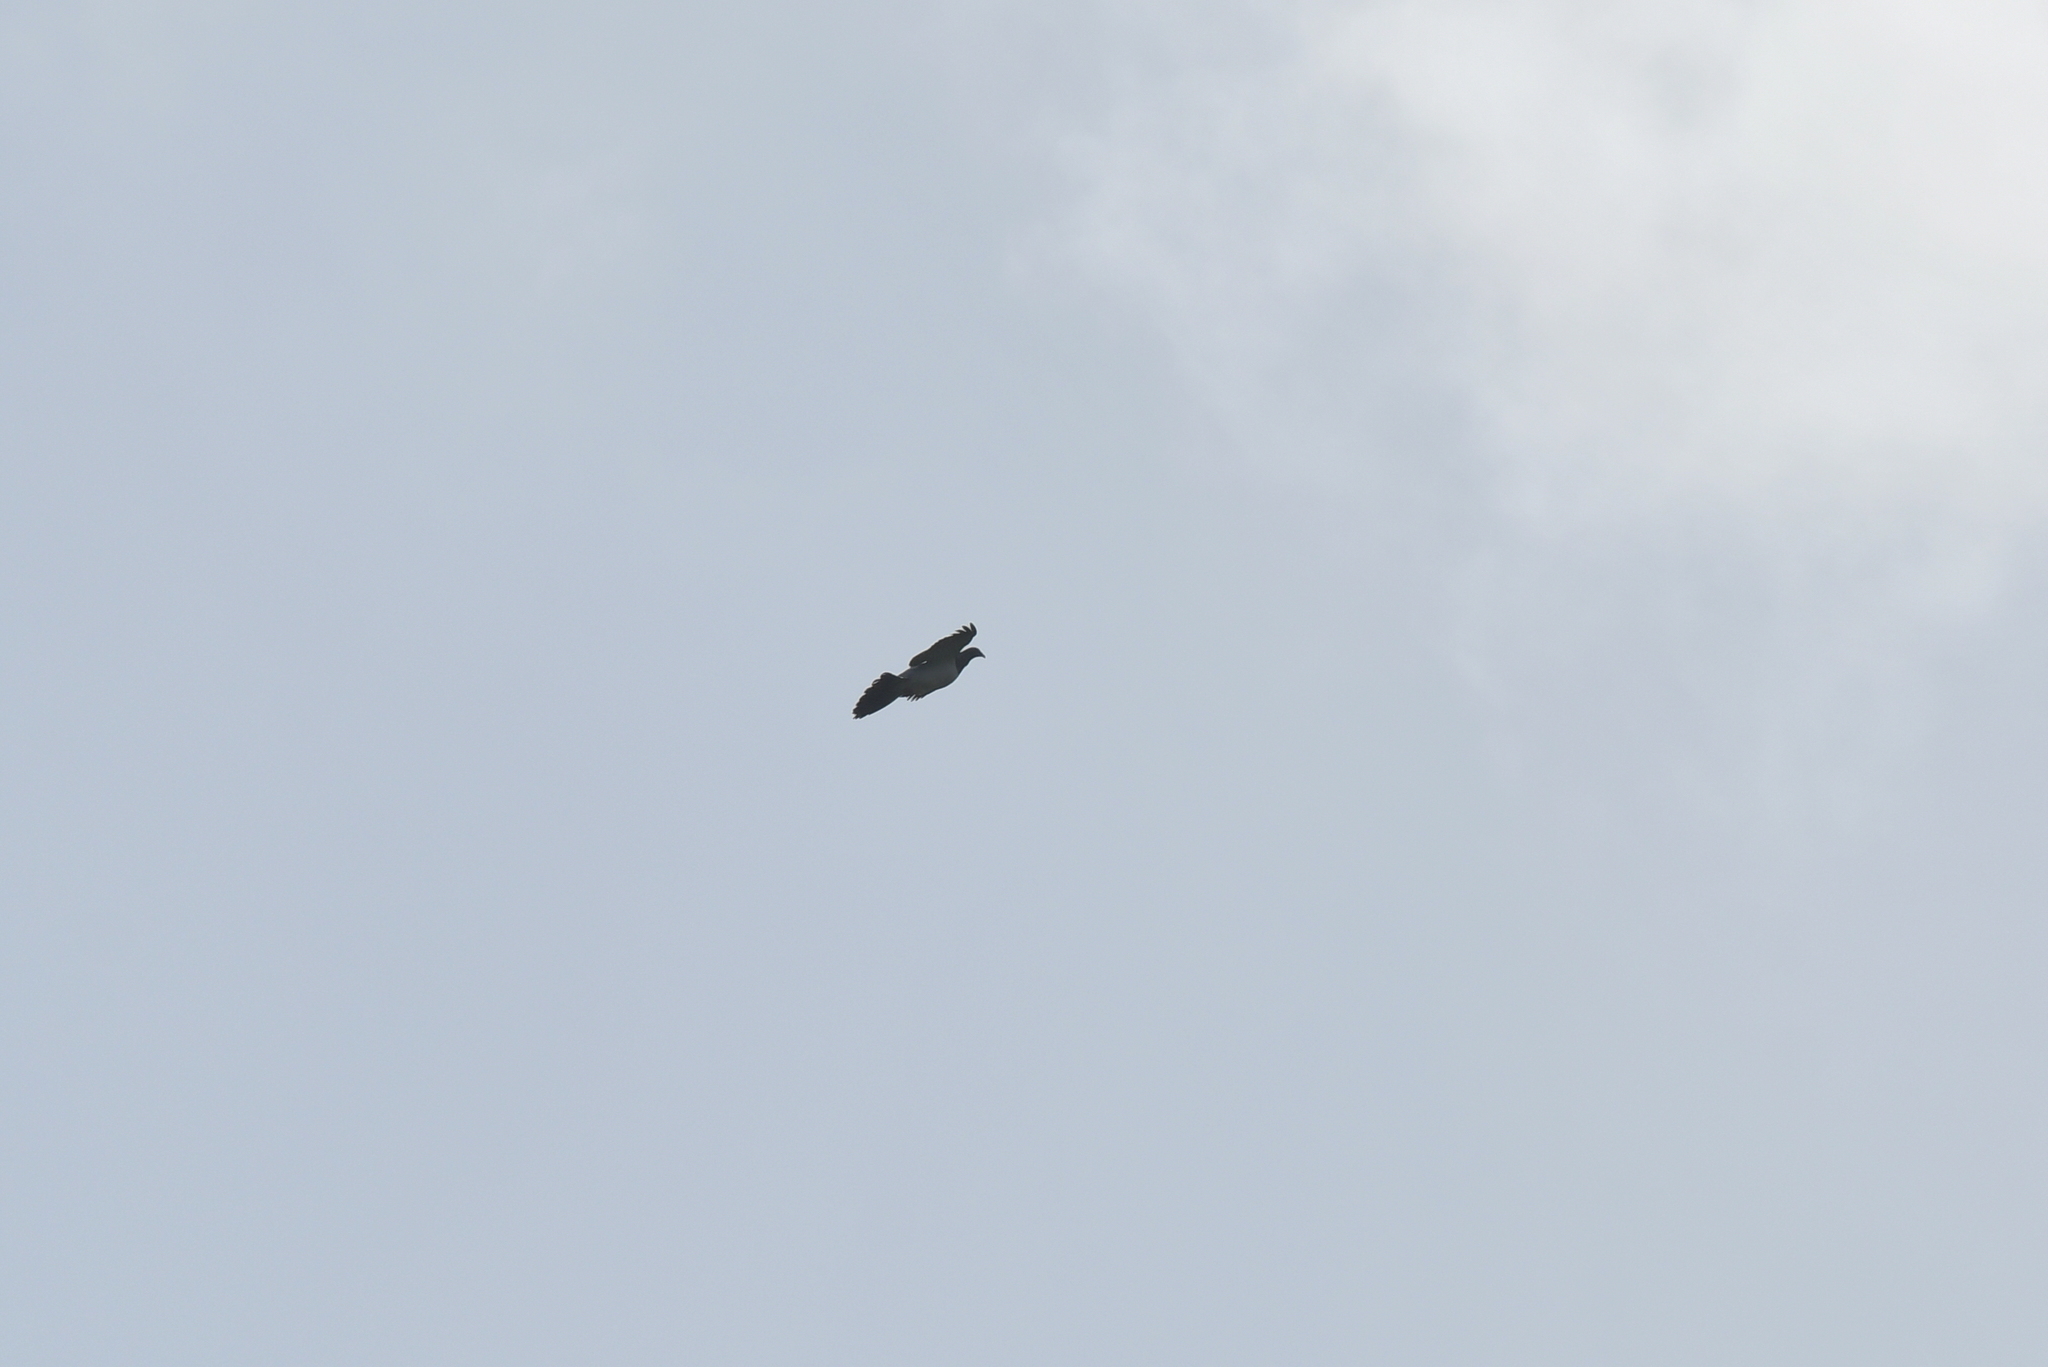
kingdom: Animalia
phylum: Chordata
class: Aves
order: Columbiformes
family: Columbidae
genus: Hemiphaga
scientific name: Hemiphaga chathamensis
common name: Chatham pigeon
